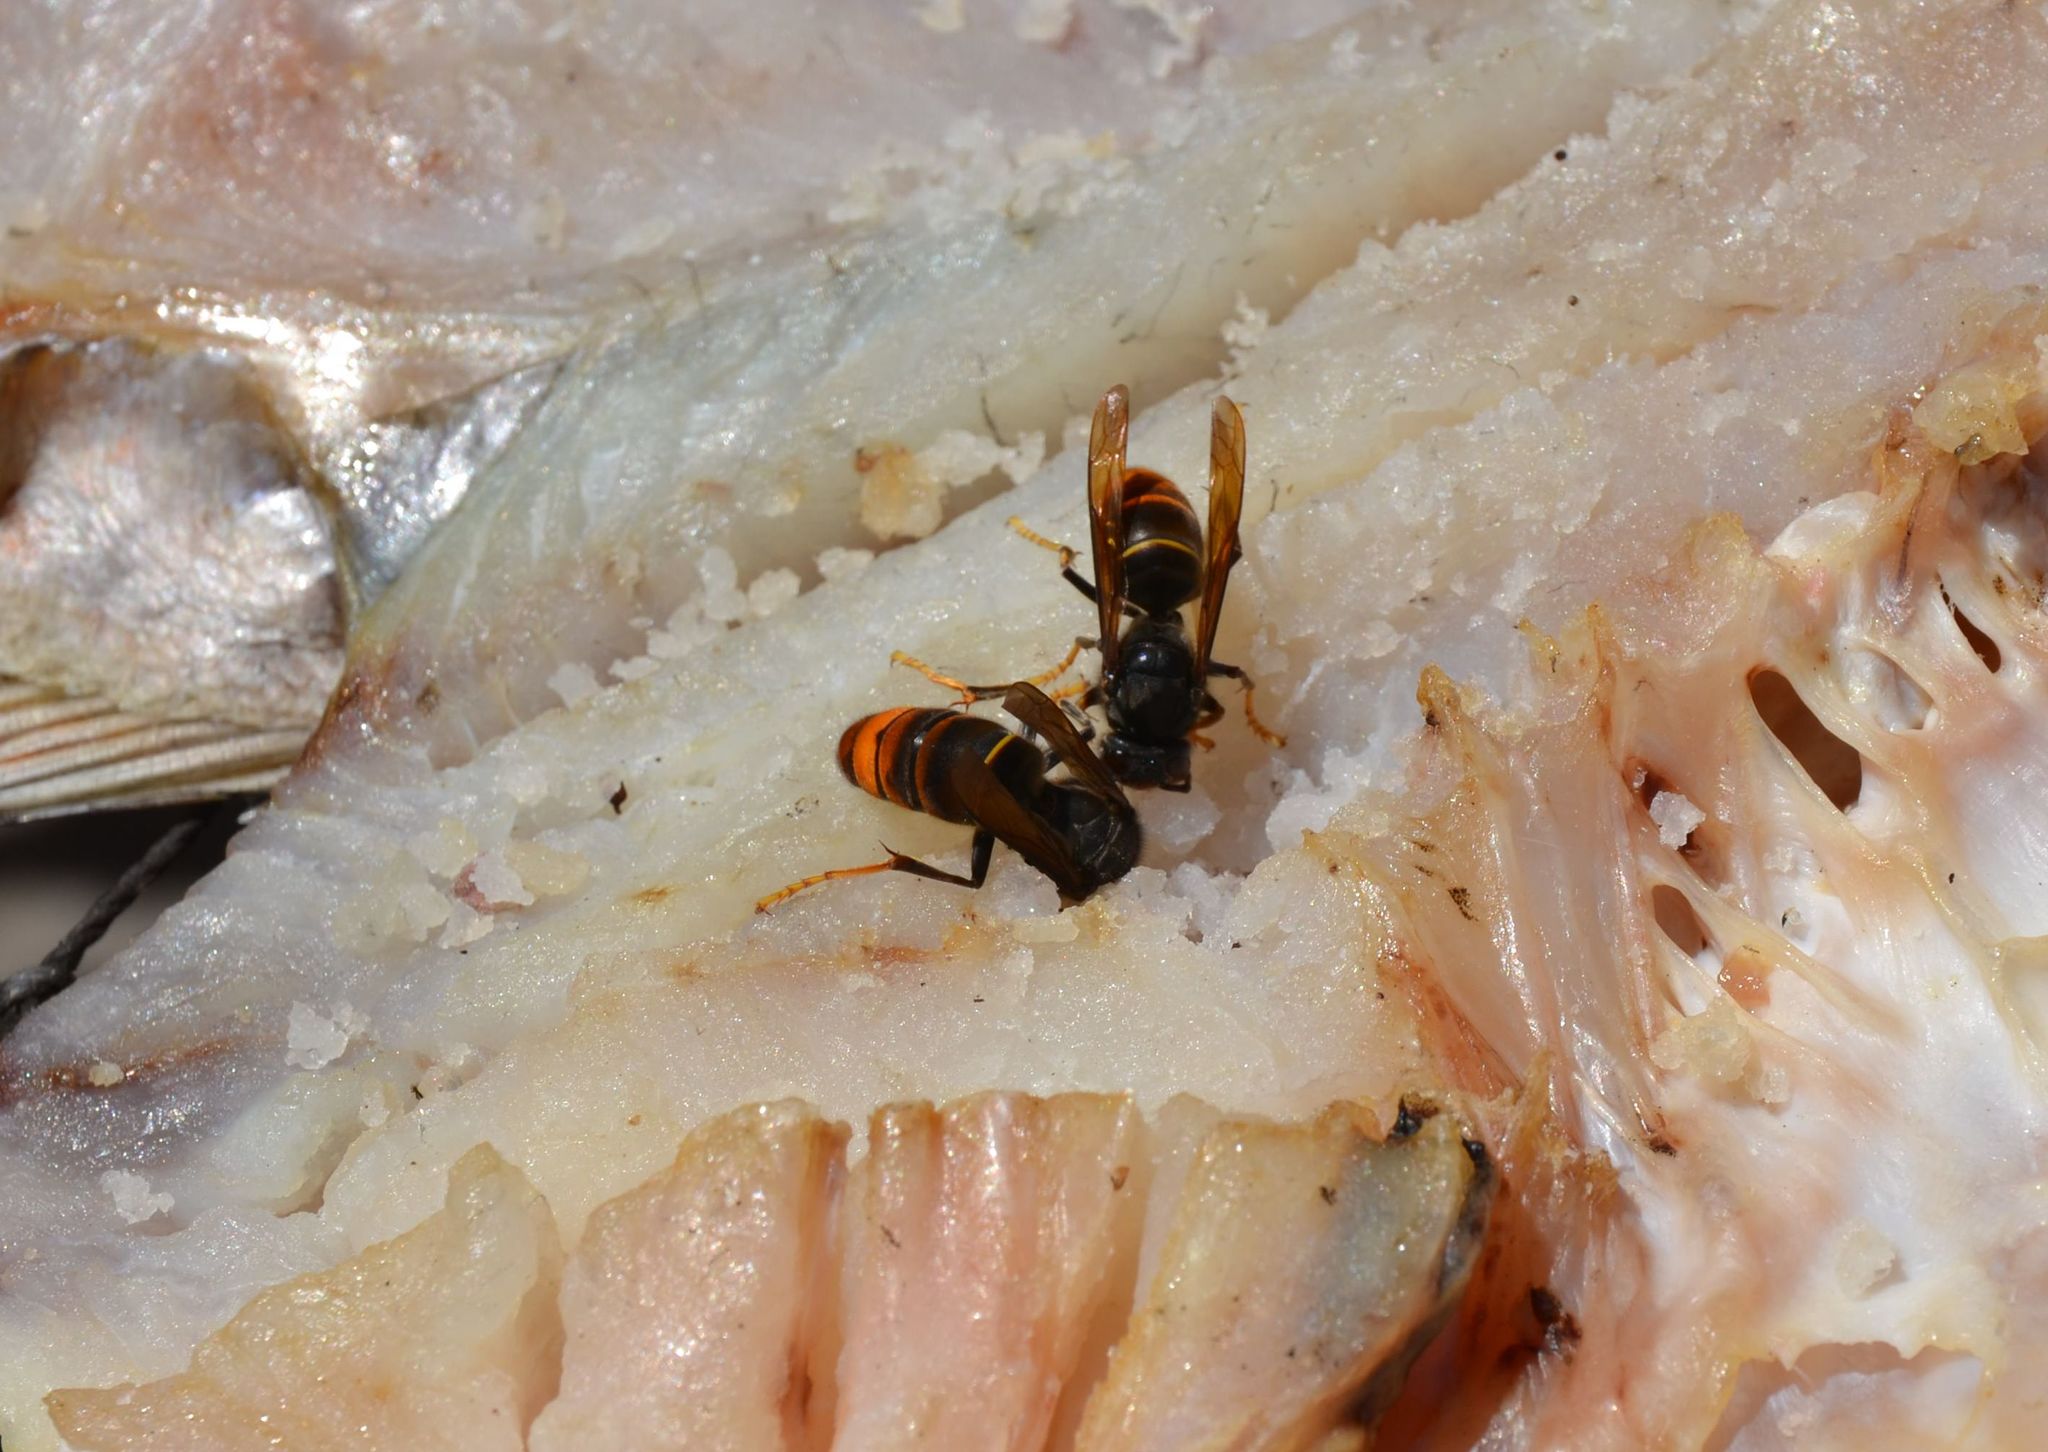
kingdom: Animalia
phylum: Arthropoda
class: Insecta
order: Hymenoptera
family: Vespidae
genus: Vespa
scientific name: Vespa velutina
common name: Asian hornet
